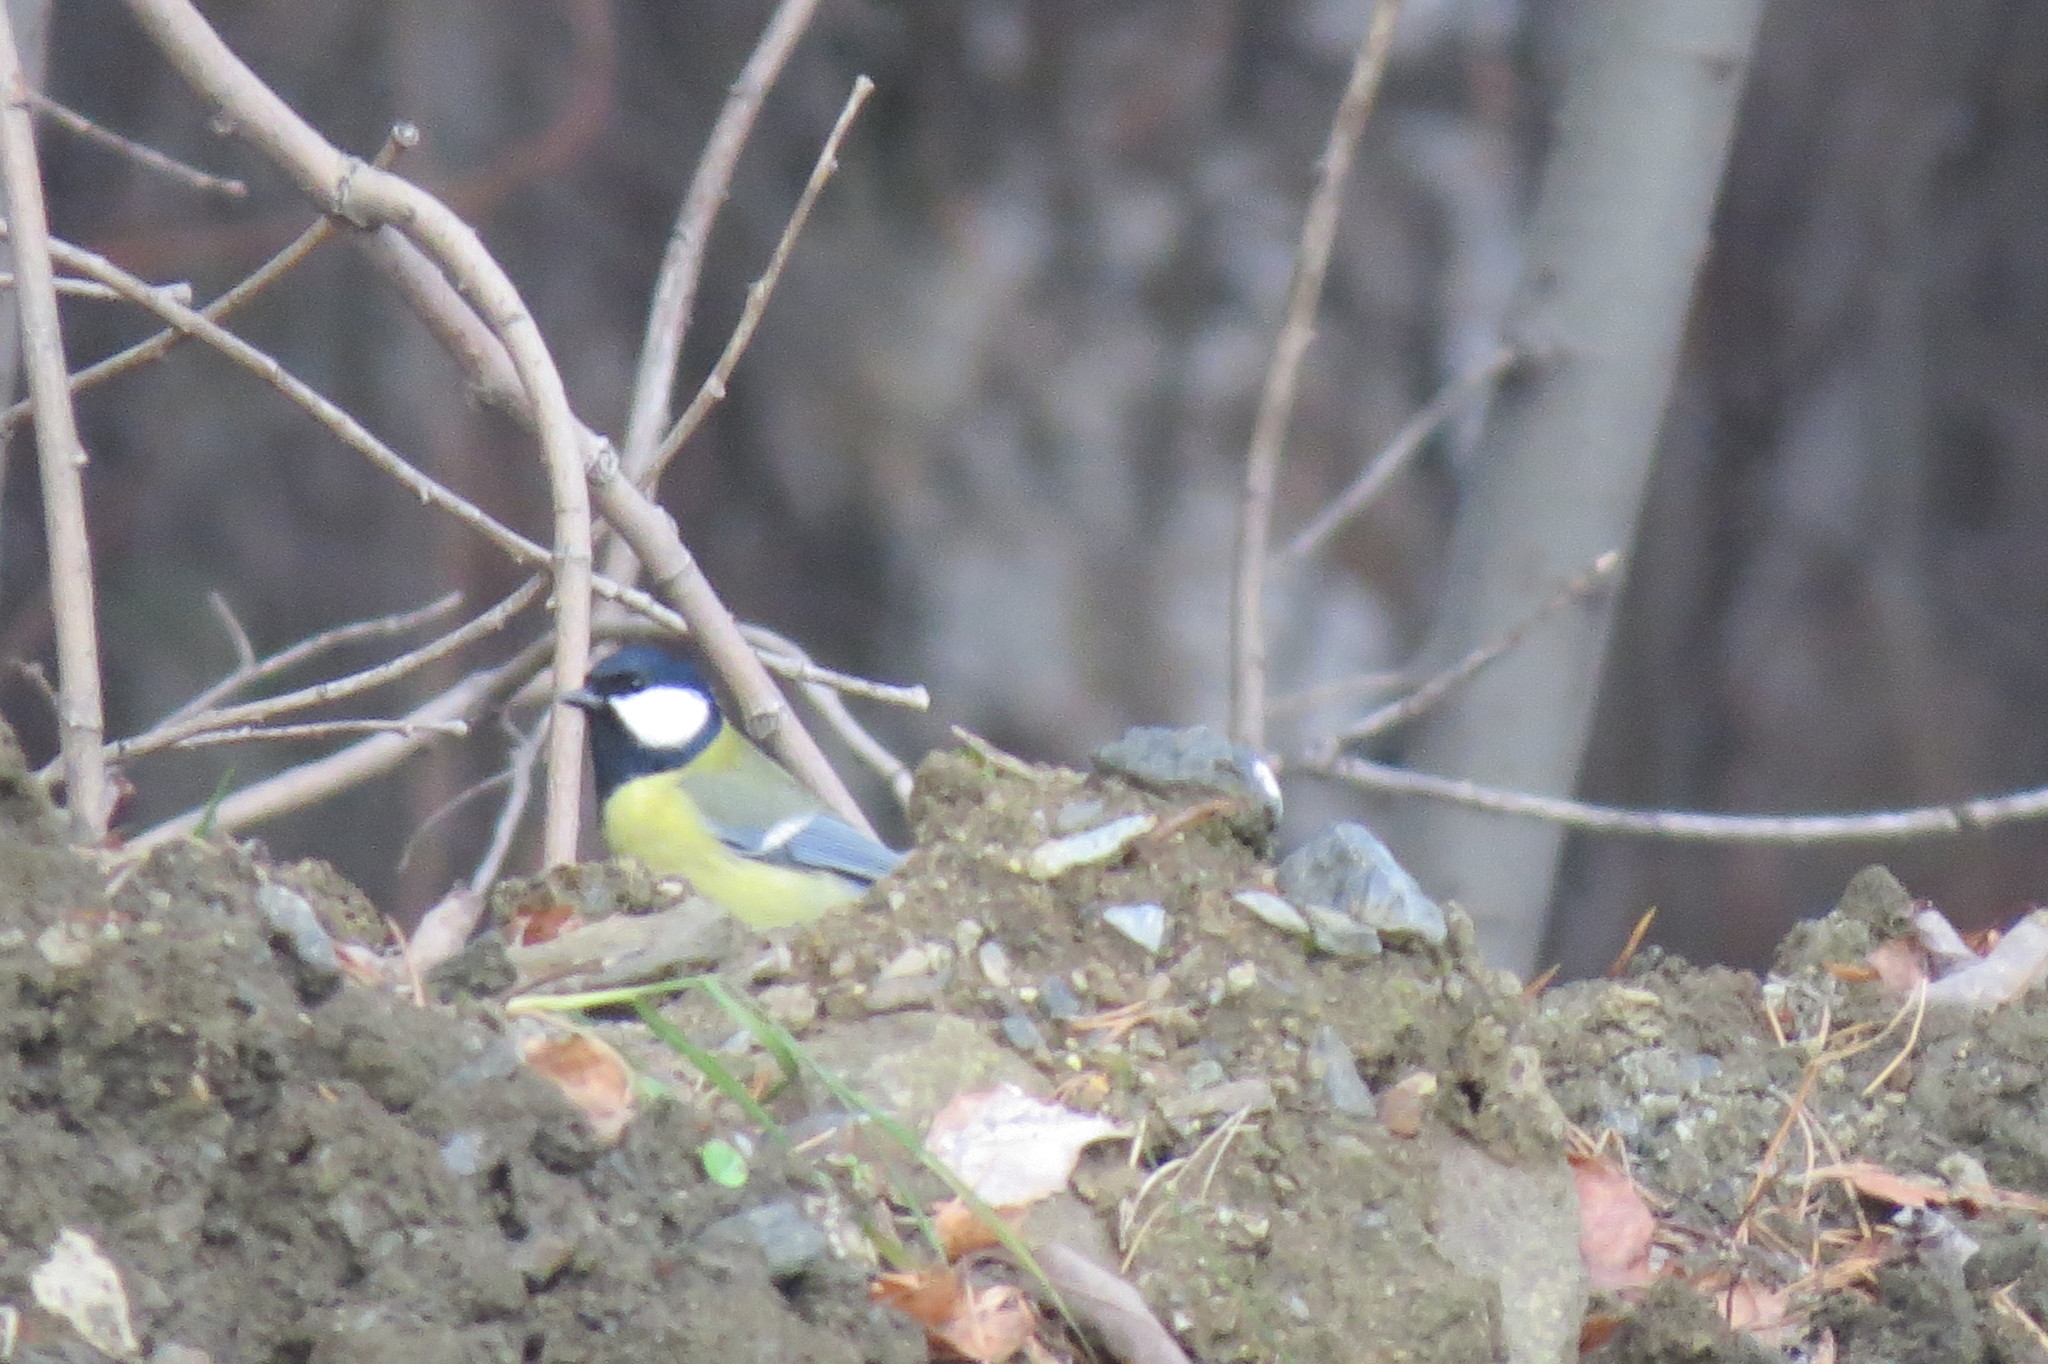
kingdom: Animalia
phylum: Chordata
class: Aves
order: Passeriformes
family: Paridae
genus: Parus
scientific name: Parus major
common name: Great tit
